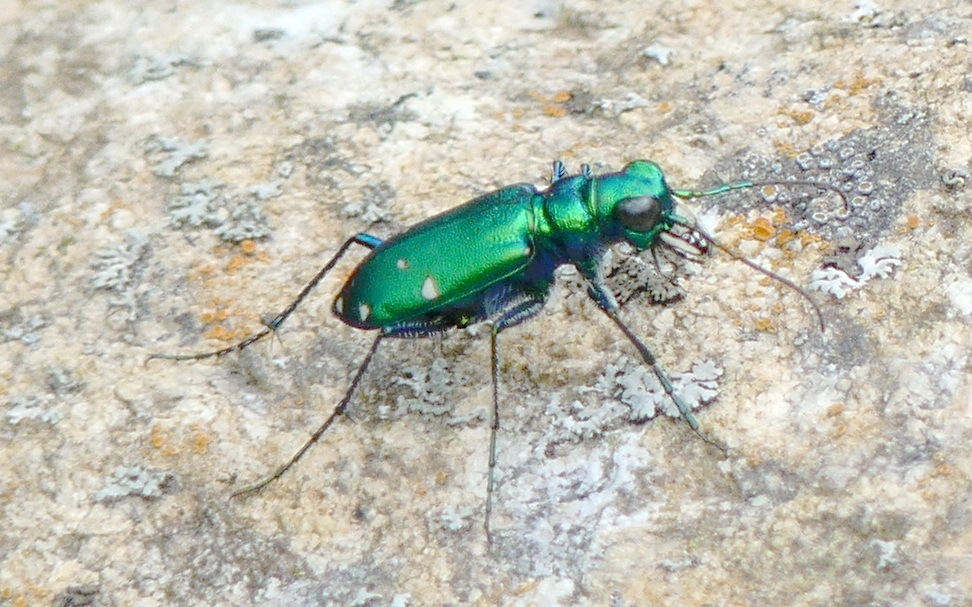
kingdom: Animalia
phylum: Arthropoda
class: Insecta
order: Coleoptera
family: Carabidae
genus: Cicindela
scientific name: Cicindela sexguttata
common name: Six-spotted tiger beetle
